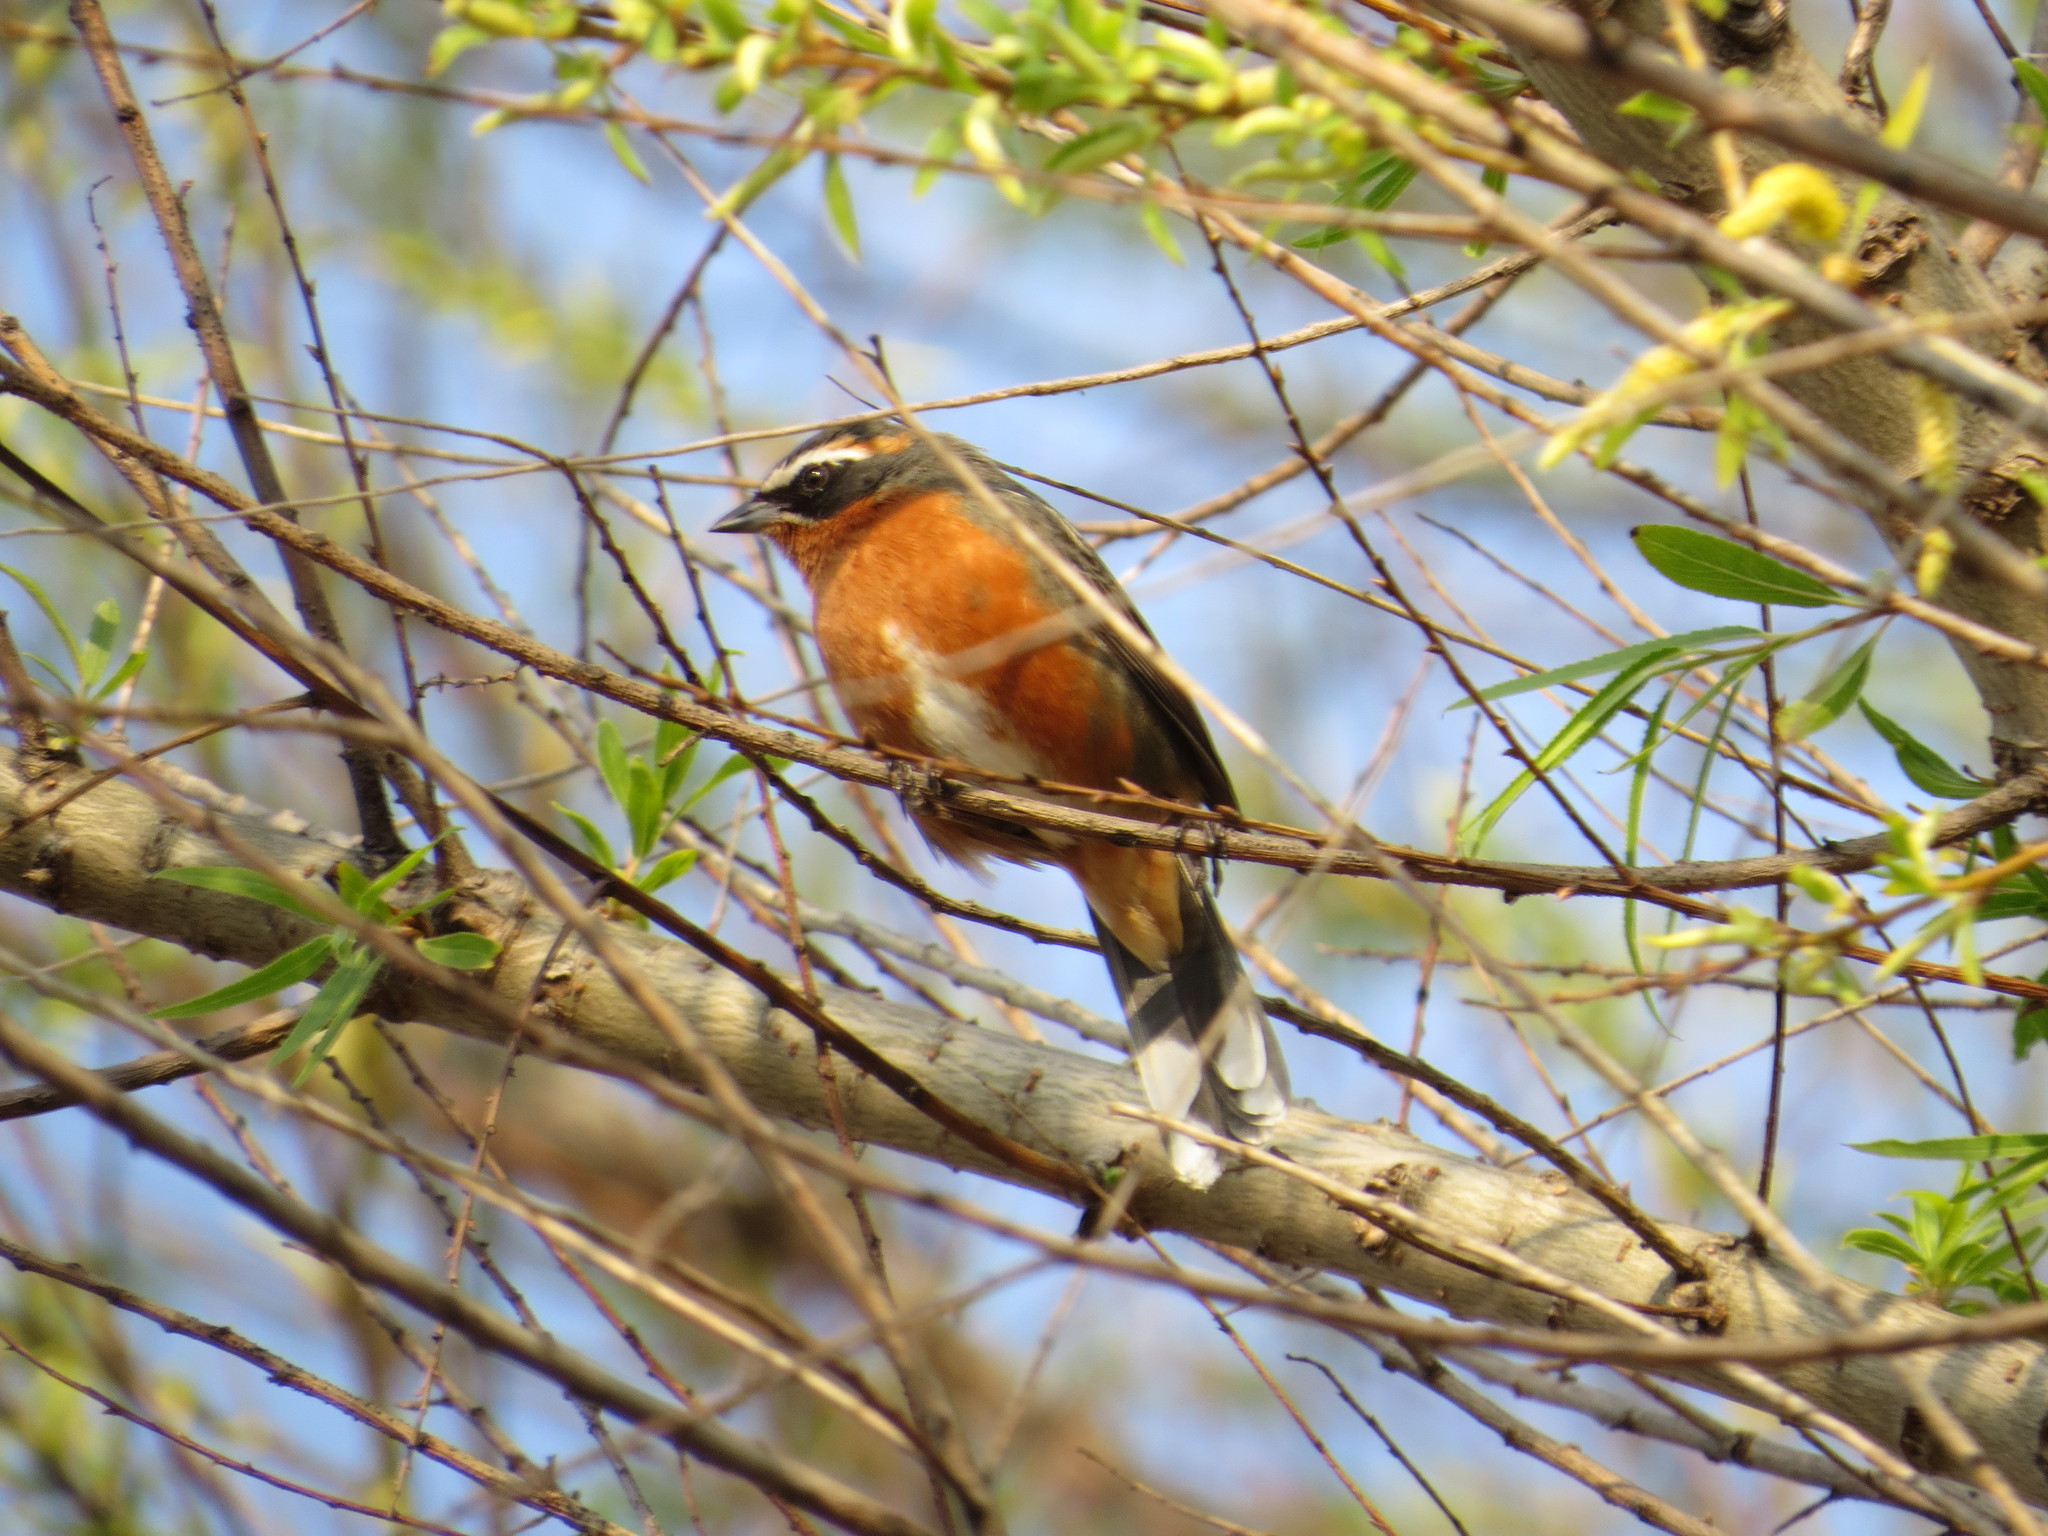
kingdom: Animalia
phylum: Chordata
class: Aves
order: Passeriformes
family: Thraupidae
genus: Poospiza
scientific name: Poospiza nigrorufa
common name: Black-and-rufous warbling finch
